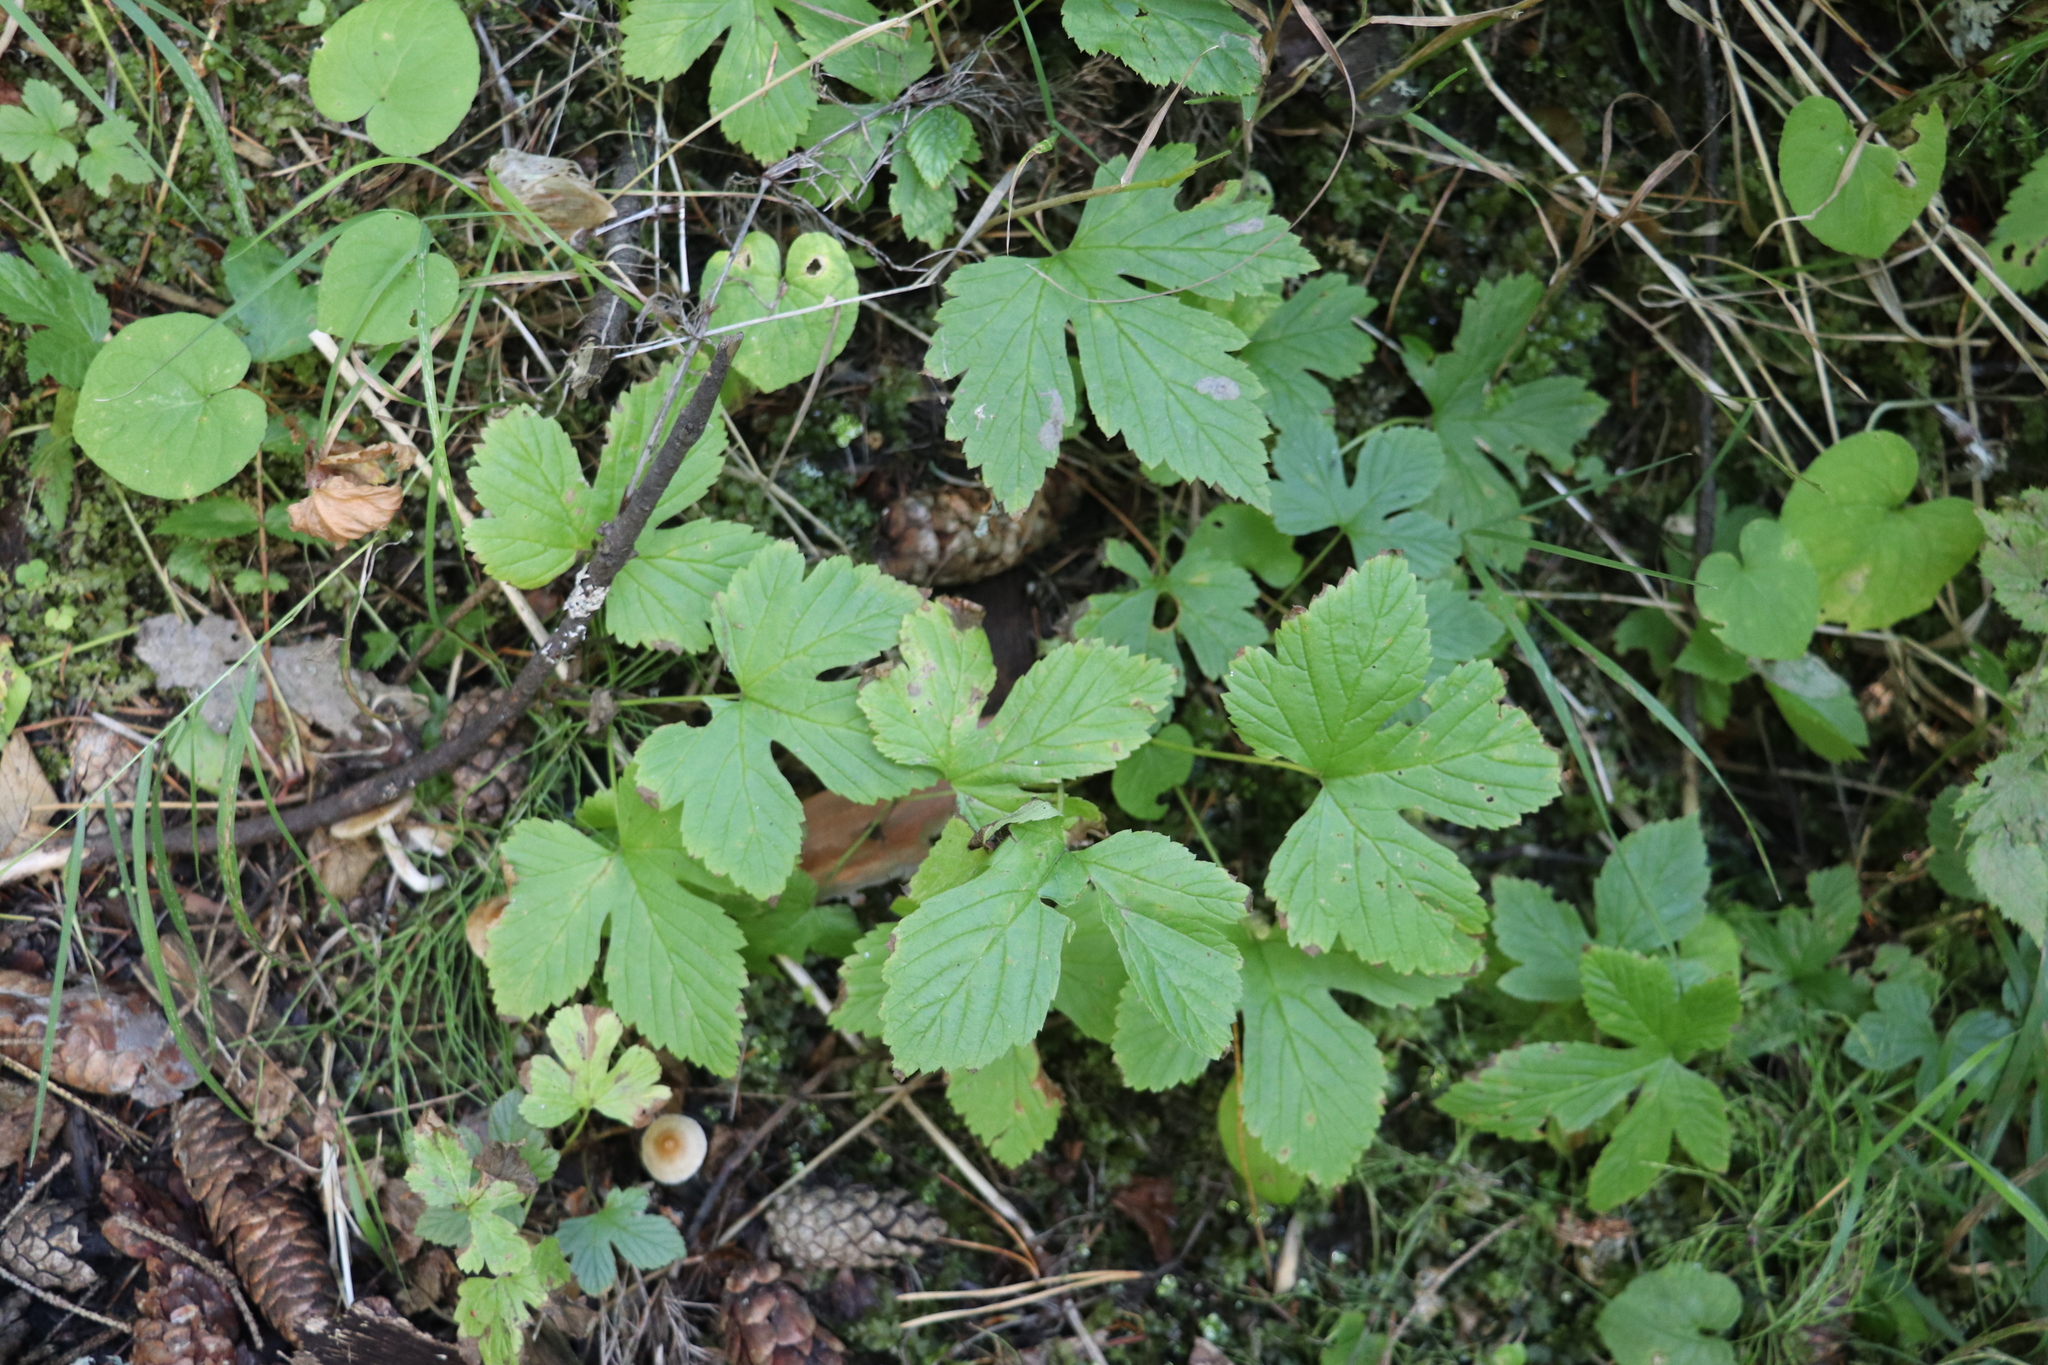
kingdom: Plantae
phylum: Tracheophyta
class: Magnoliopsida
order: Rosales
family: Rosaceae
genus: Rubus
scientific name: Rubus humulifolius
